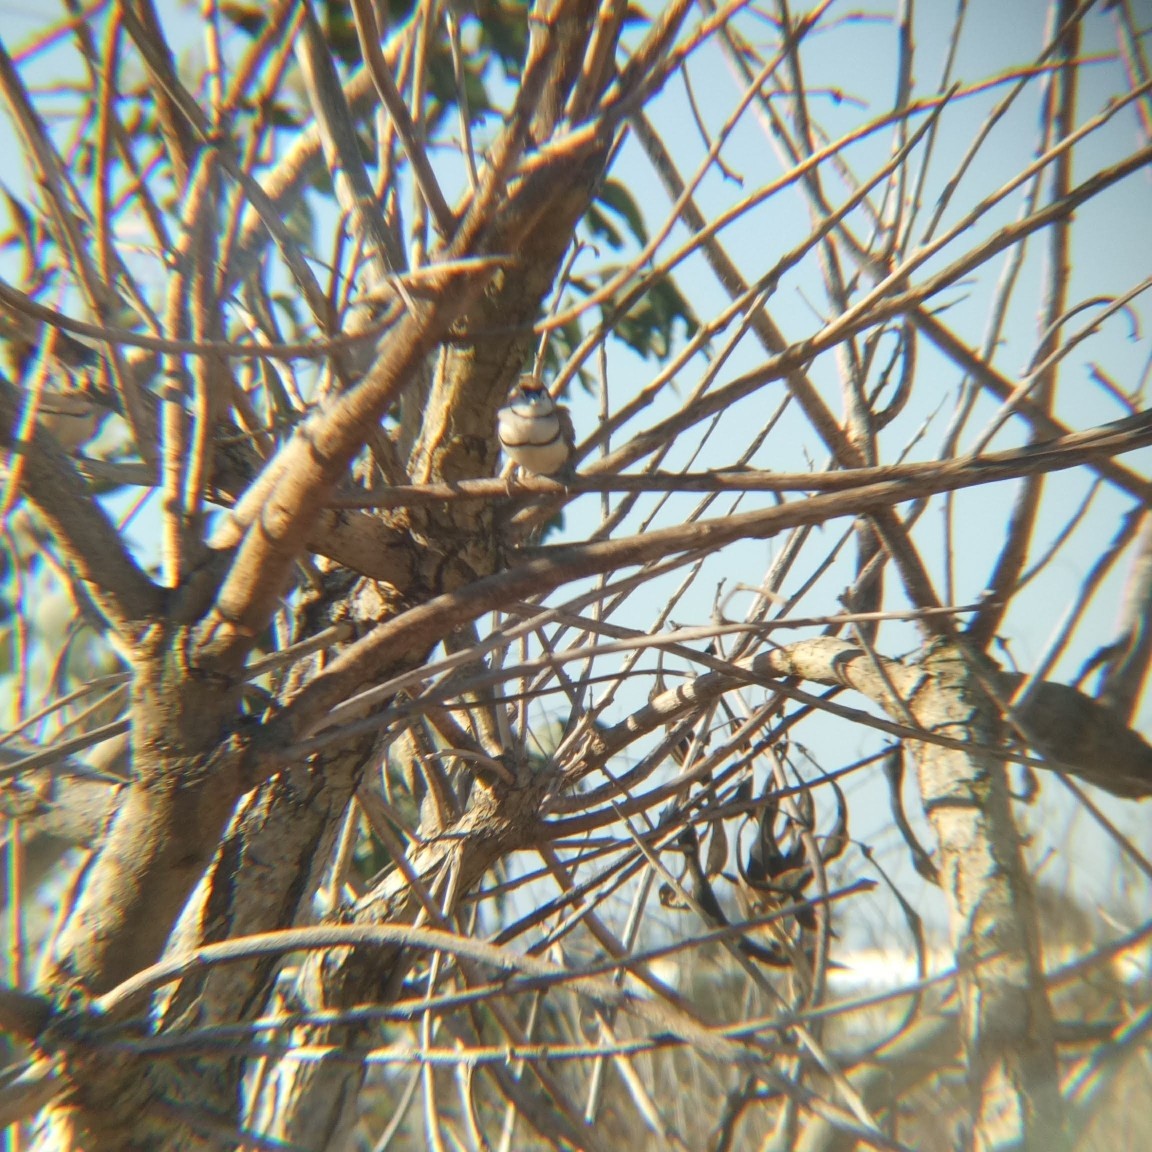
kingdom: Animalia
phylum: Chordata
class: Aves
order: Passeriformes
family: Estrildidae
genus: Taeniopygia
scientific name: Taeniopygia bichenovii
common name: Double-barred finch
